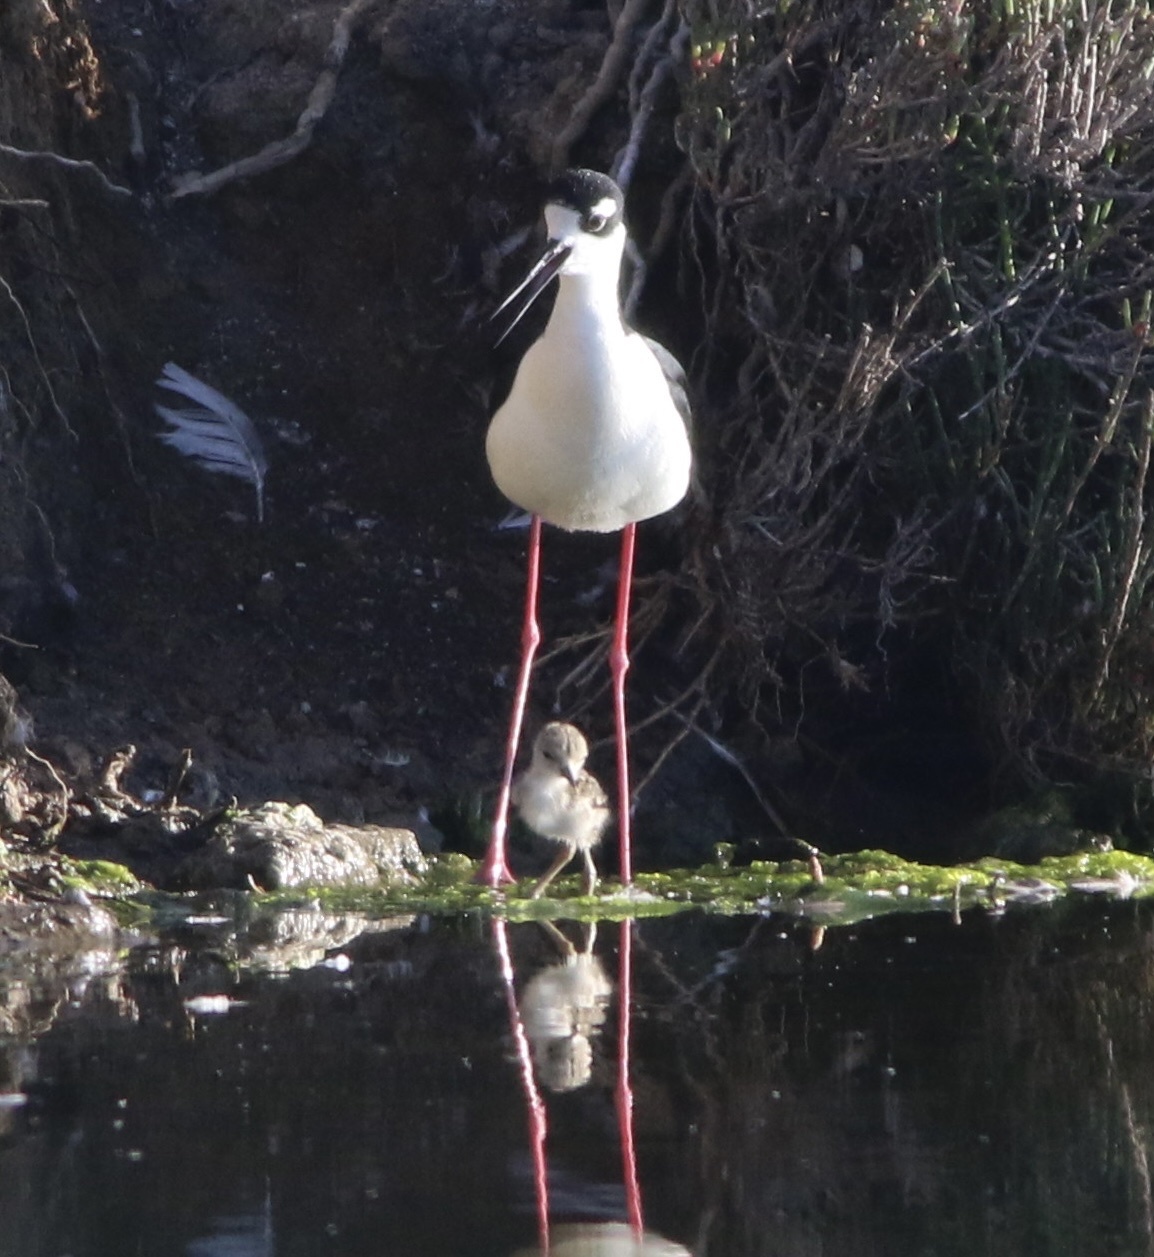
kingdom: Animalia
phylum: Chordata
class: Aves
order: Charadriiformes
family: Recurvirostridae
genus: Himantopus
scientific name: Himantopus mexicanus
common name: Black-necked stilt
